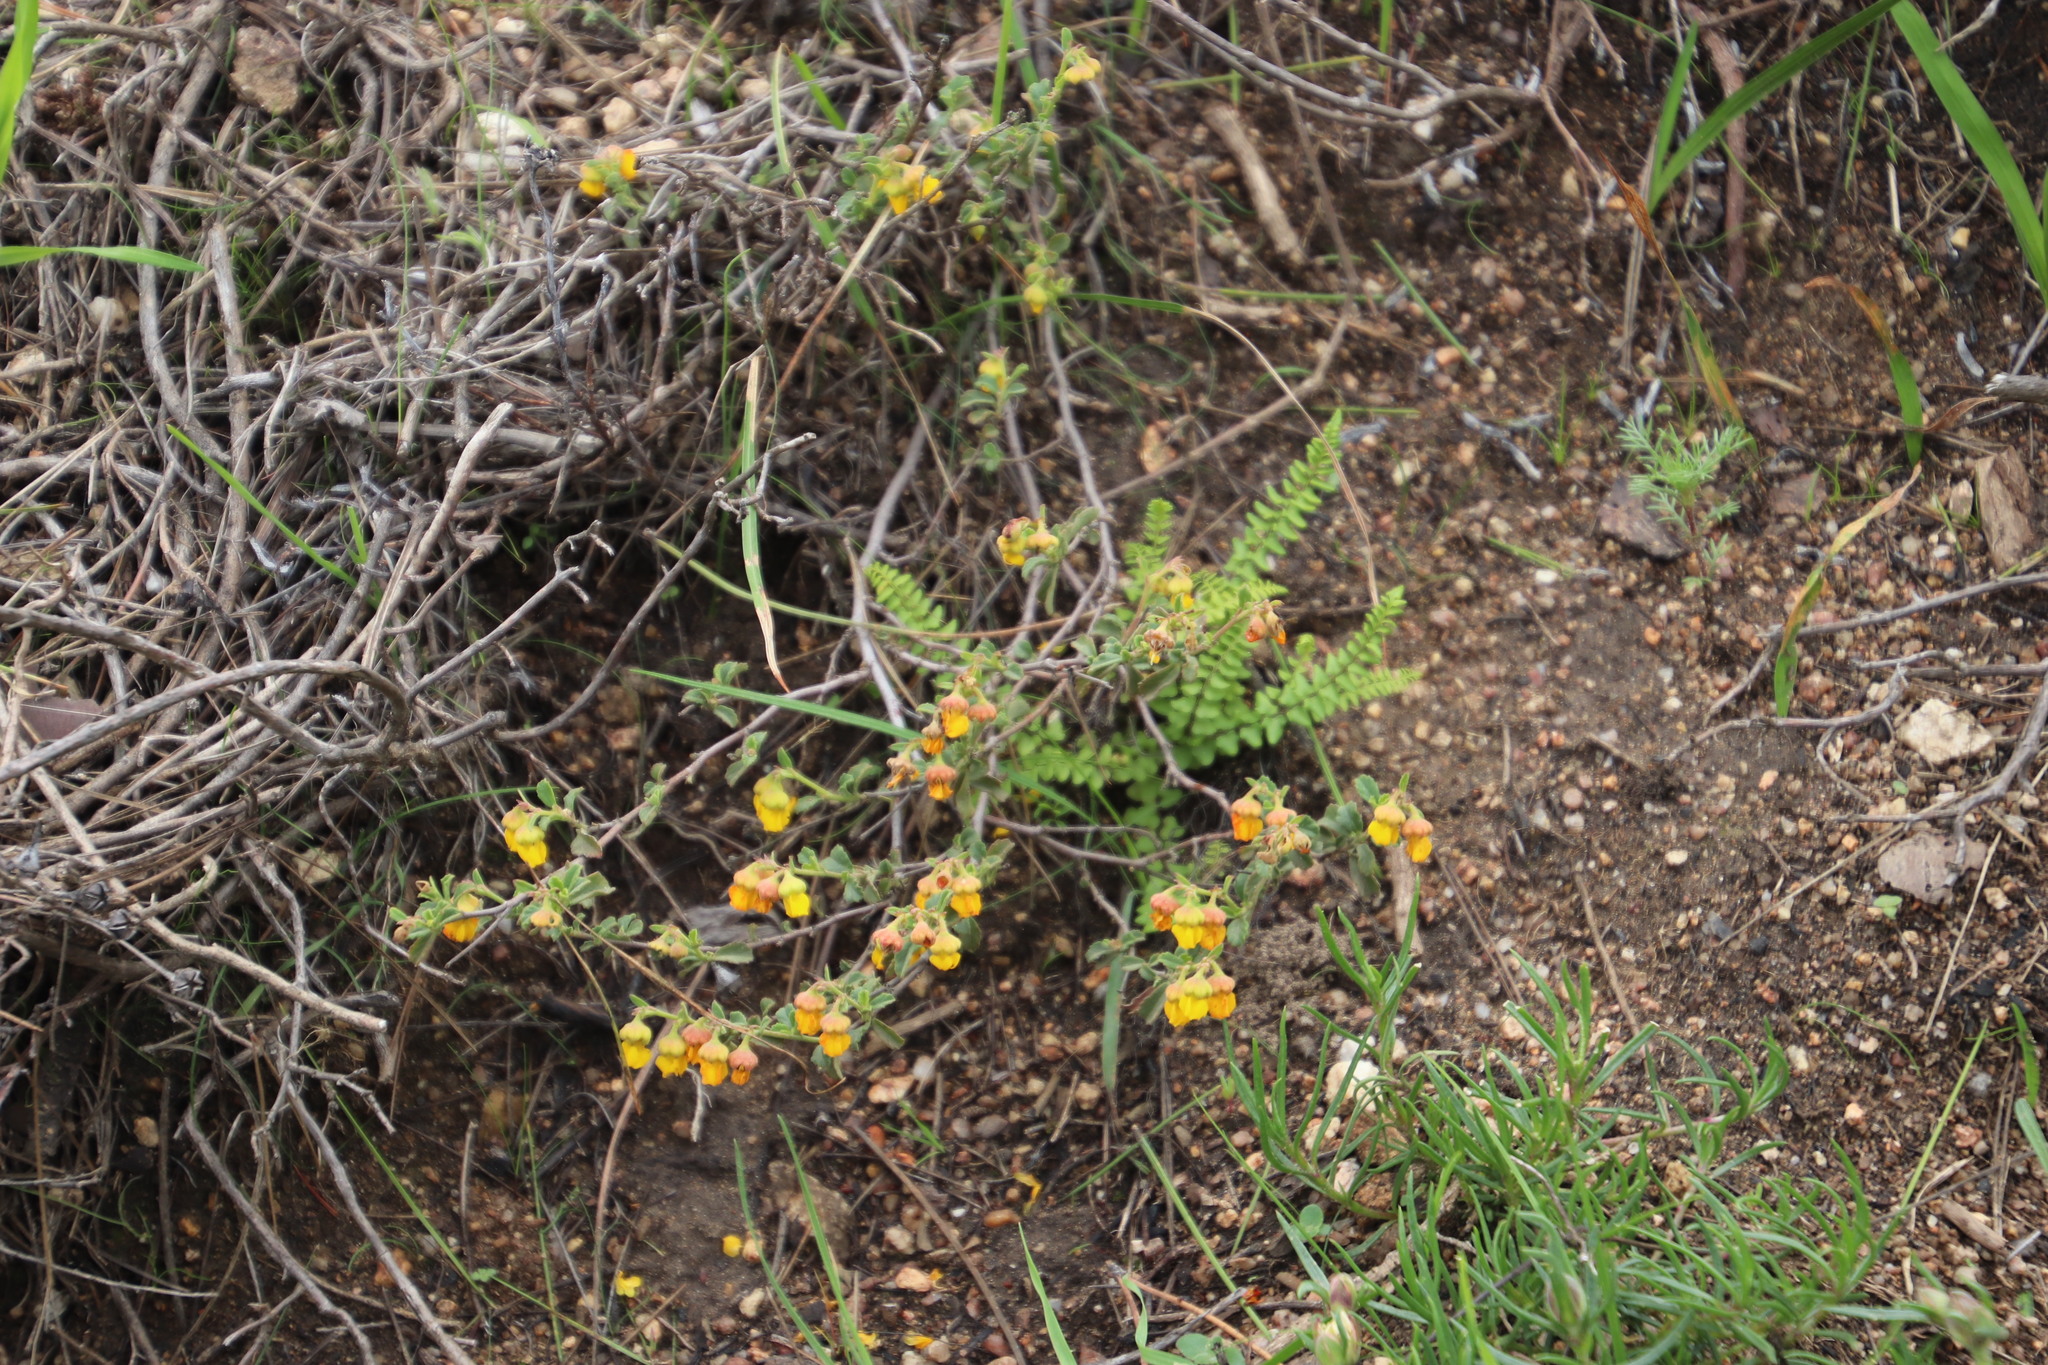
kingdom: Plantae
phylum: Tracheophyta
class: Magnoliopsida
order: Malvales
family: Malvaceae
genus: Hermannia
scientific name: Hermannia multiflora
